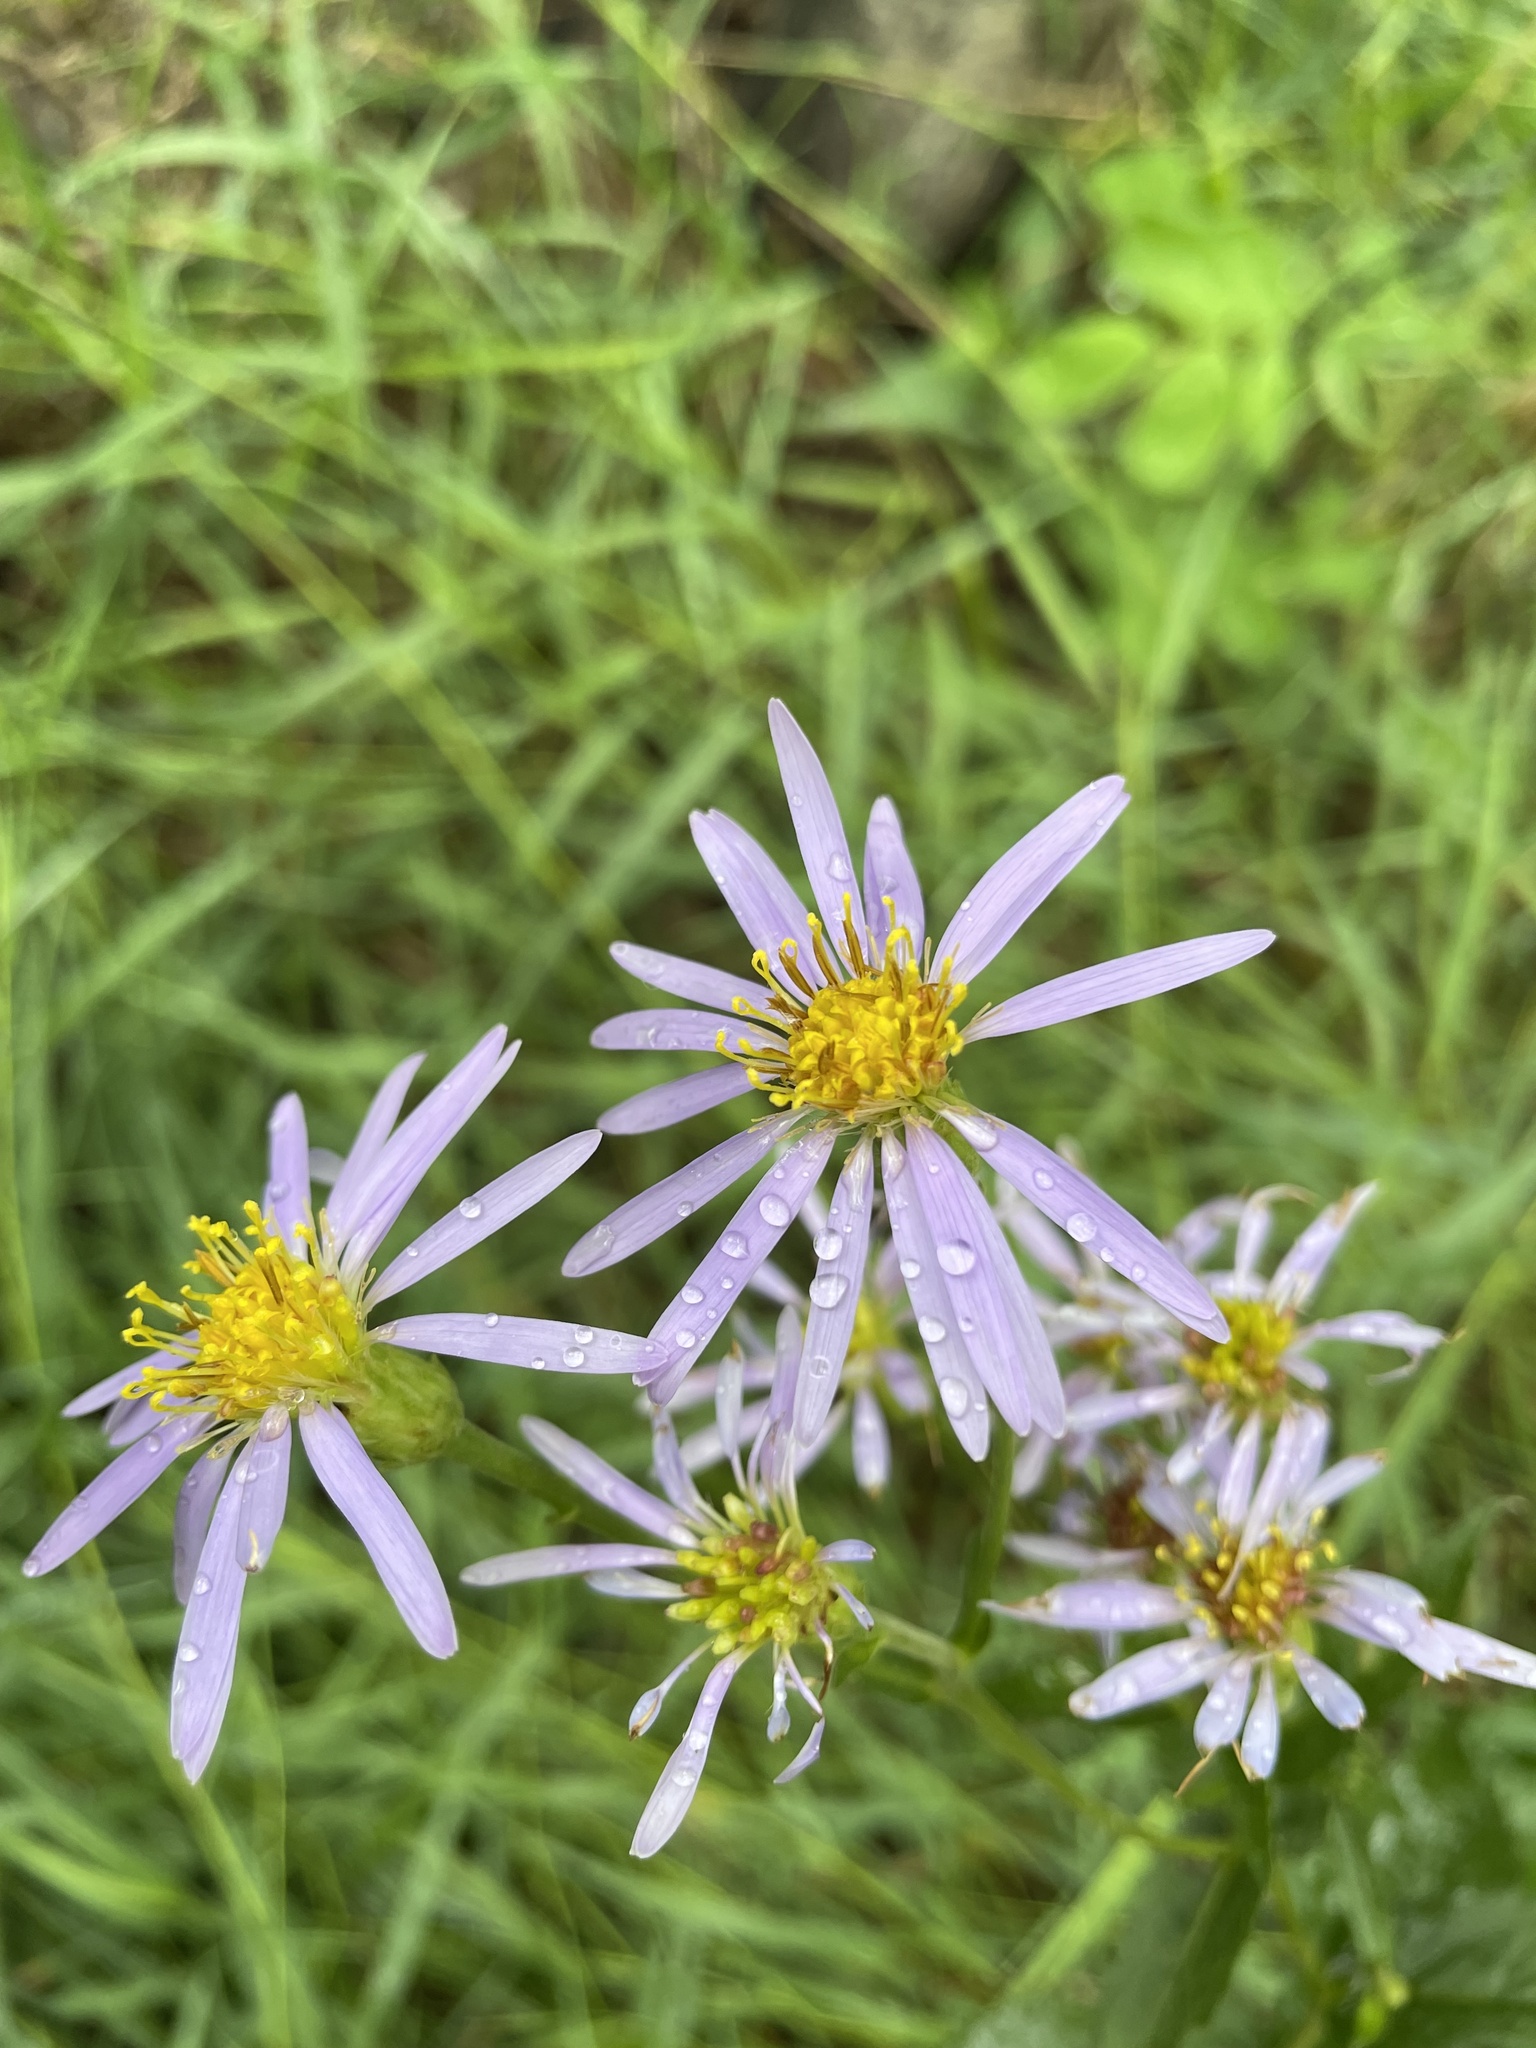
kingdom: Plantae
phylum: Tracheophyta
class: Magnoliopsida
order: Asterales
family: Asteraceae
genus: Eurybia
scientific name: Eurybia conspicua
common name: Showy aster
